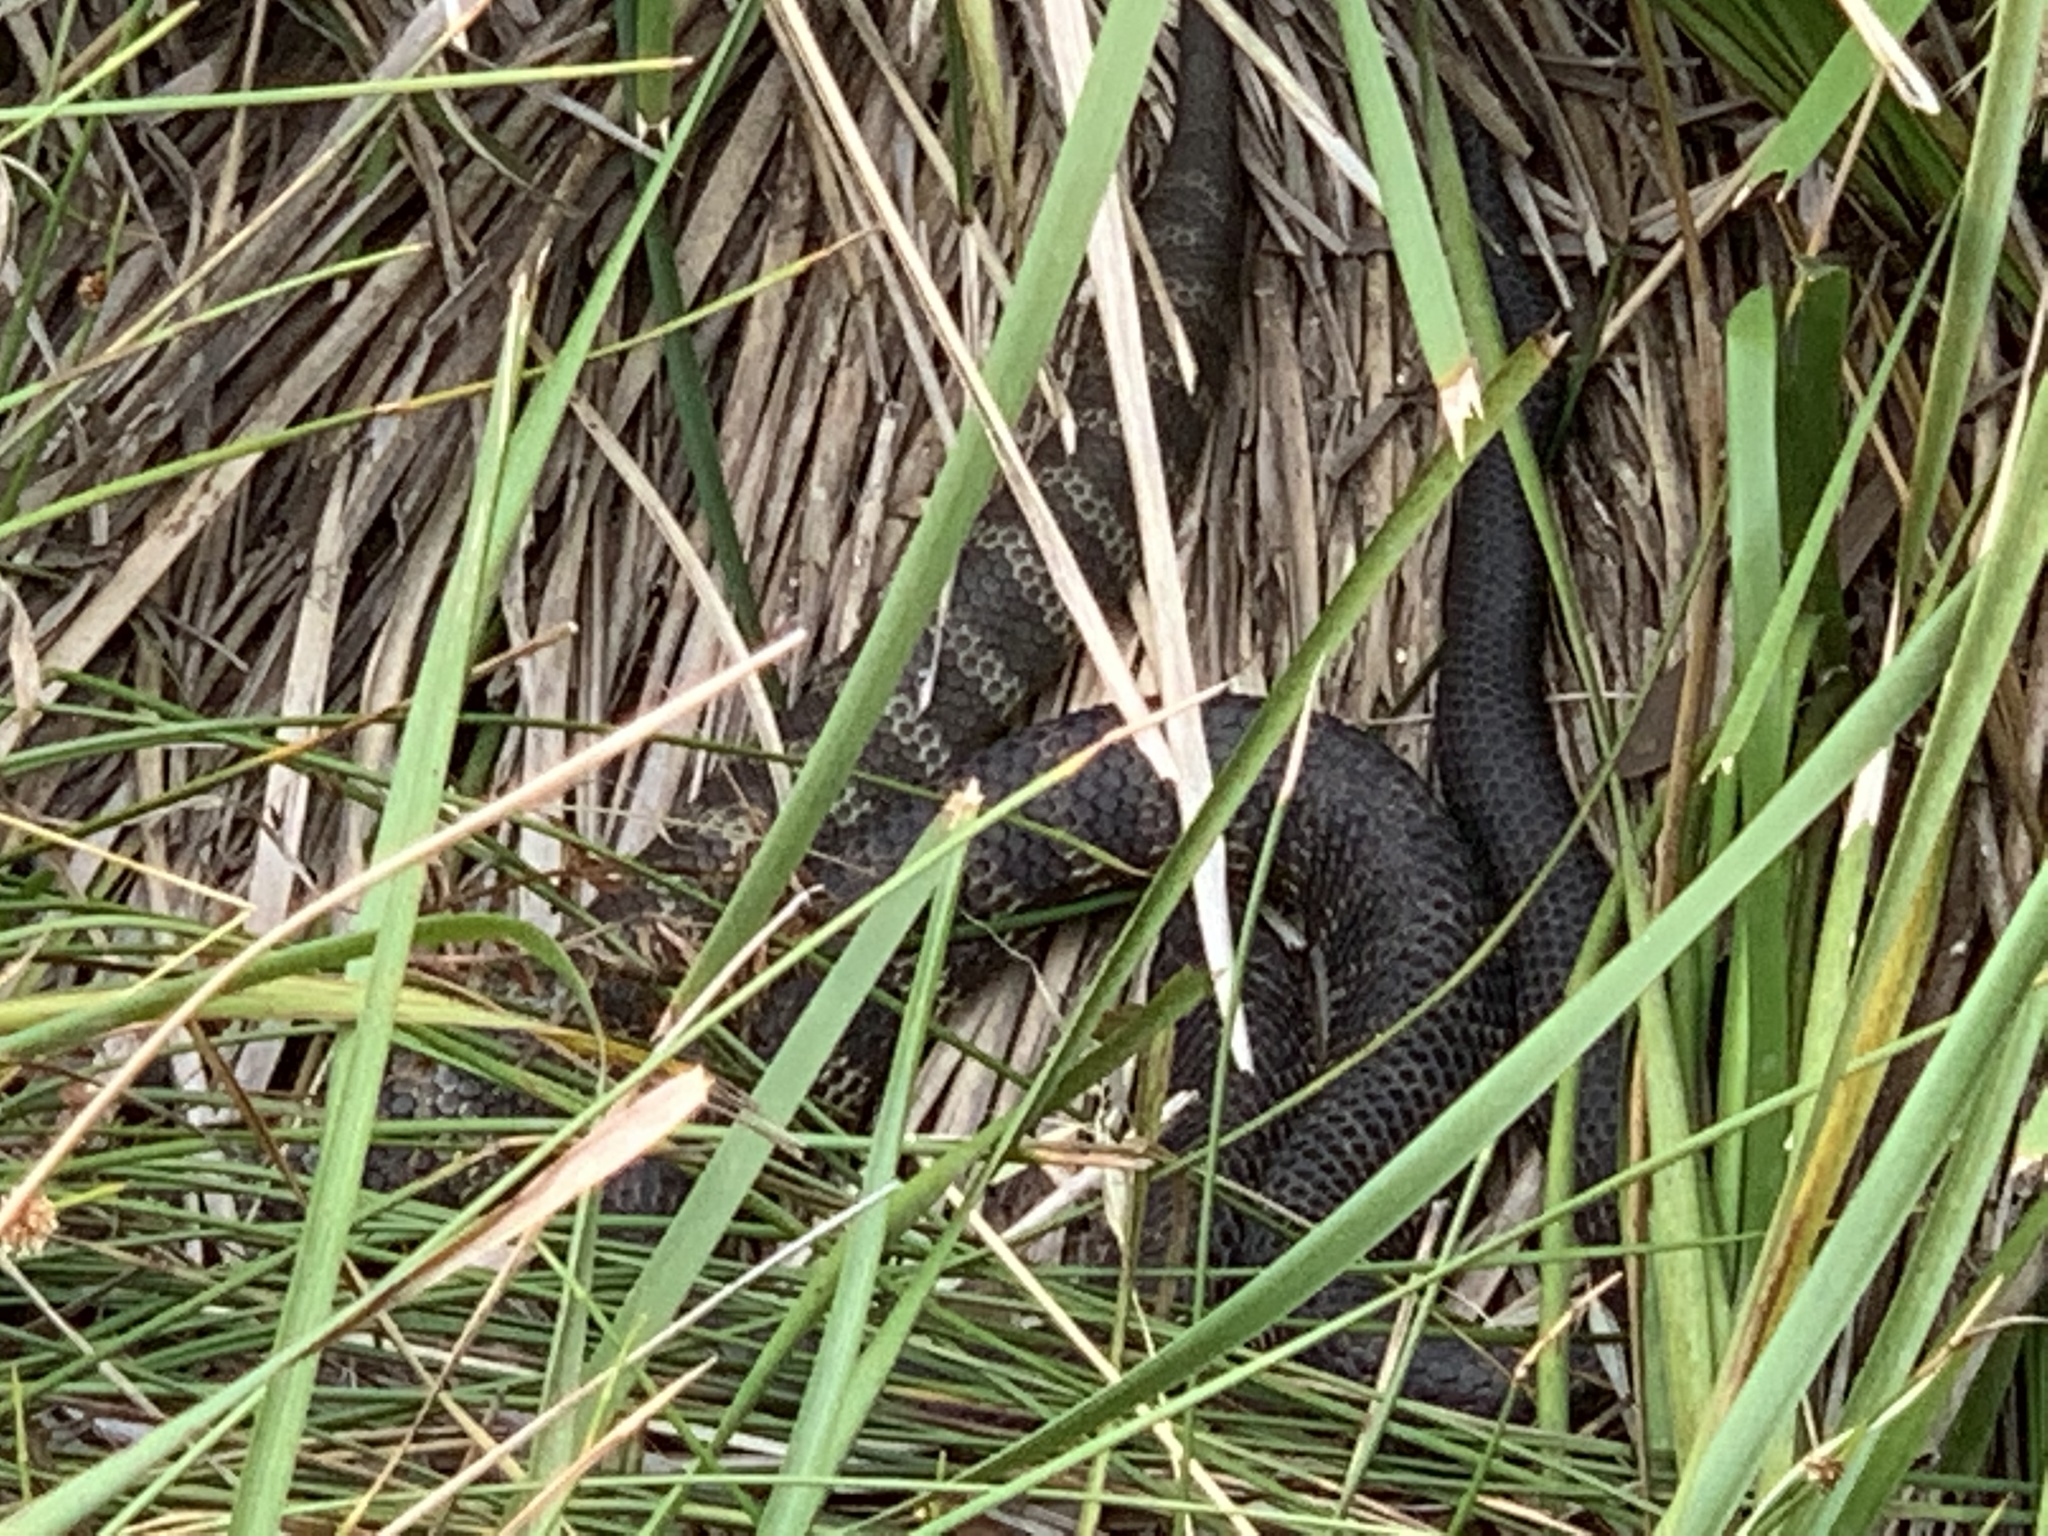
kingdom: Animalia
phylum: Chordata
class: Squamata
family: Elapidae
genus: Notechis
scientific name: Notechis scutatus
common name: Mainland tiger snake
